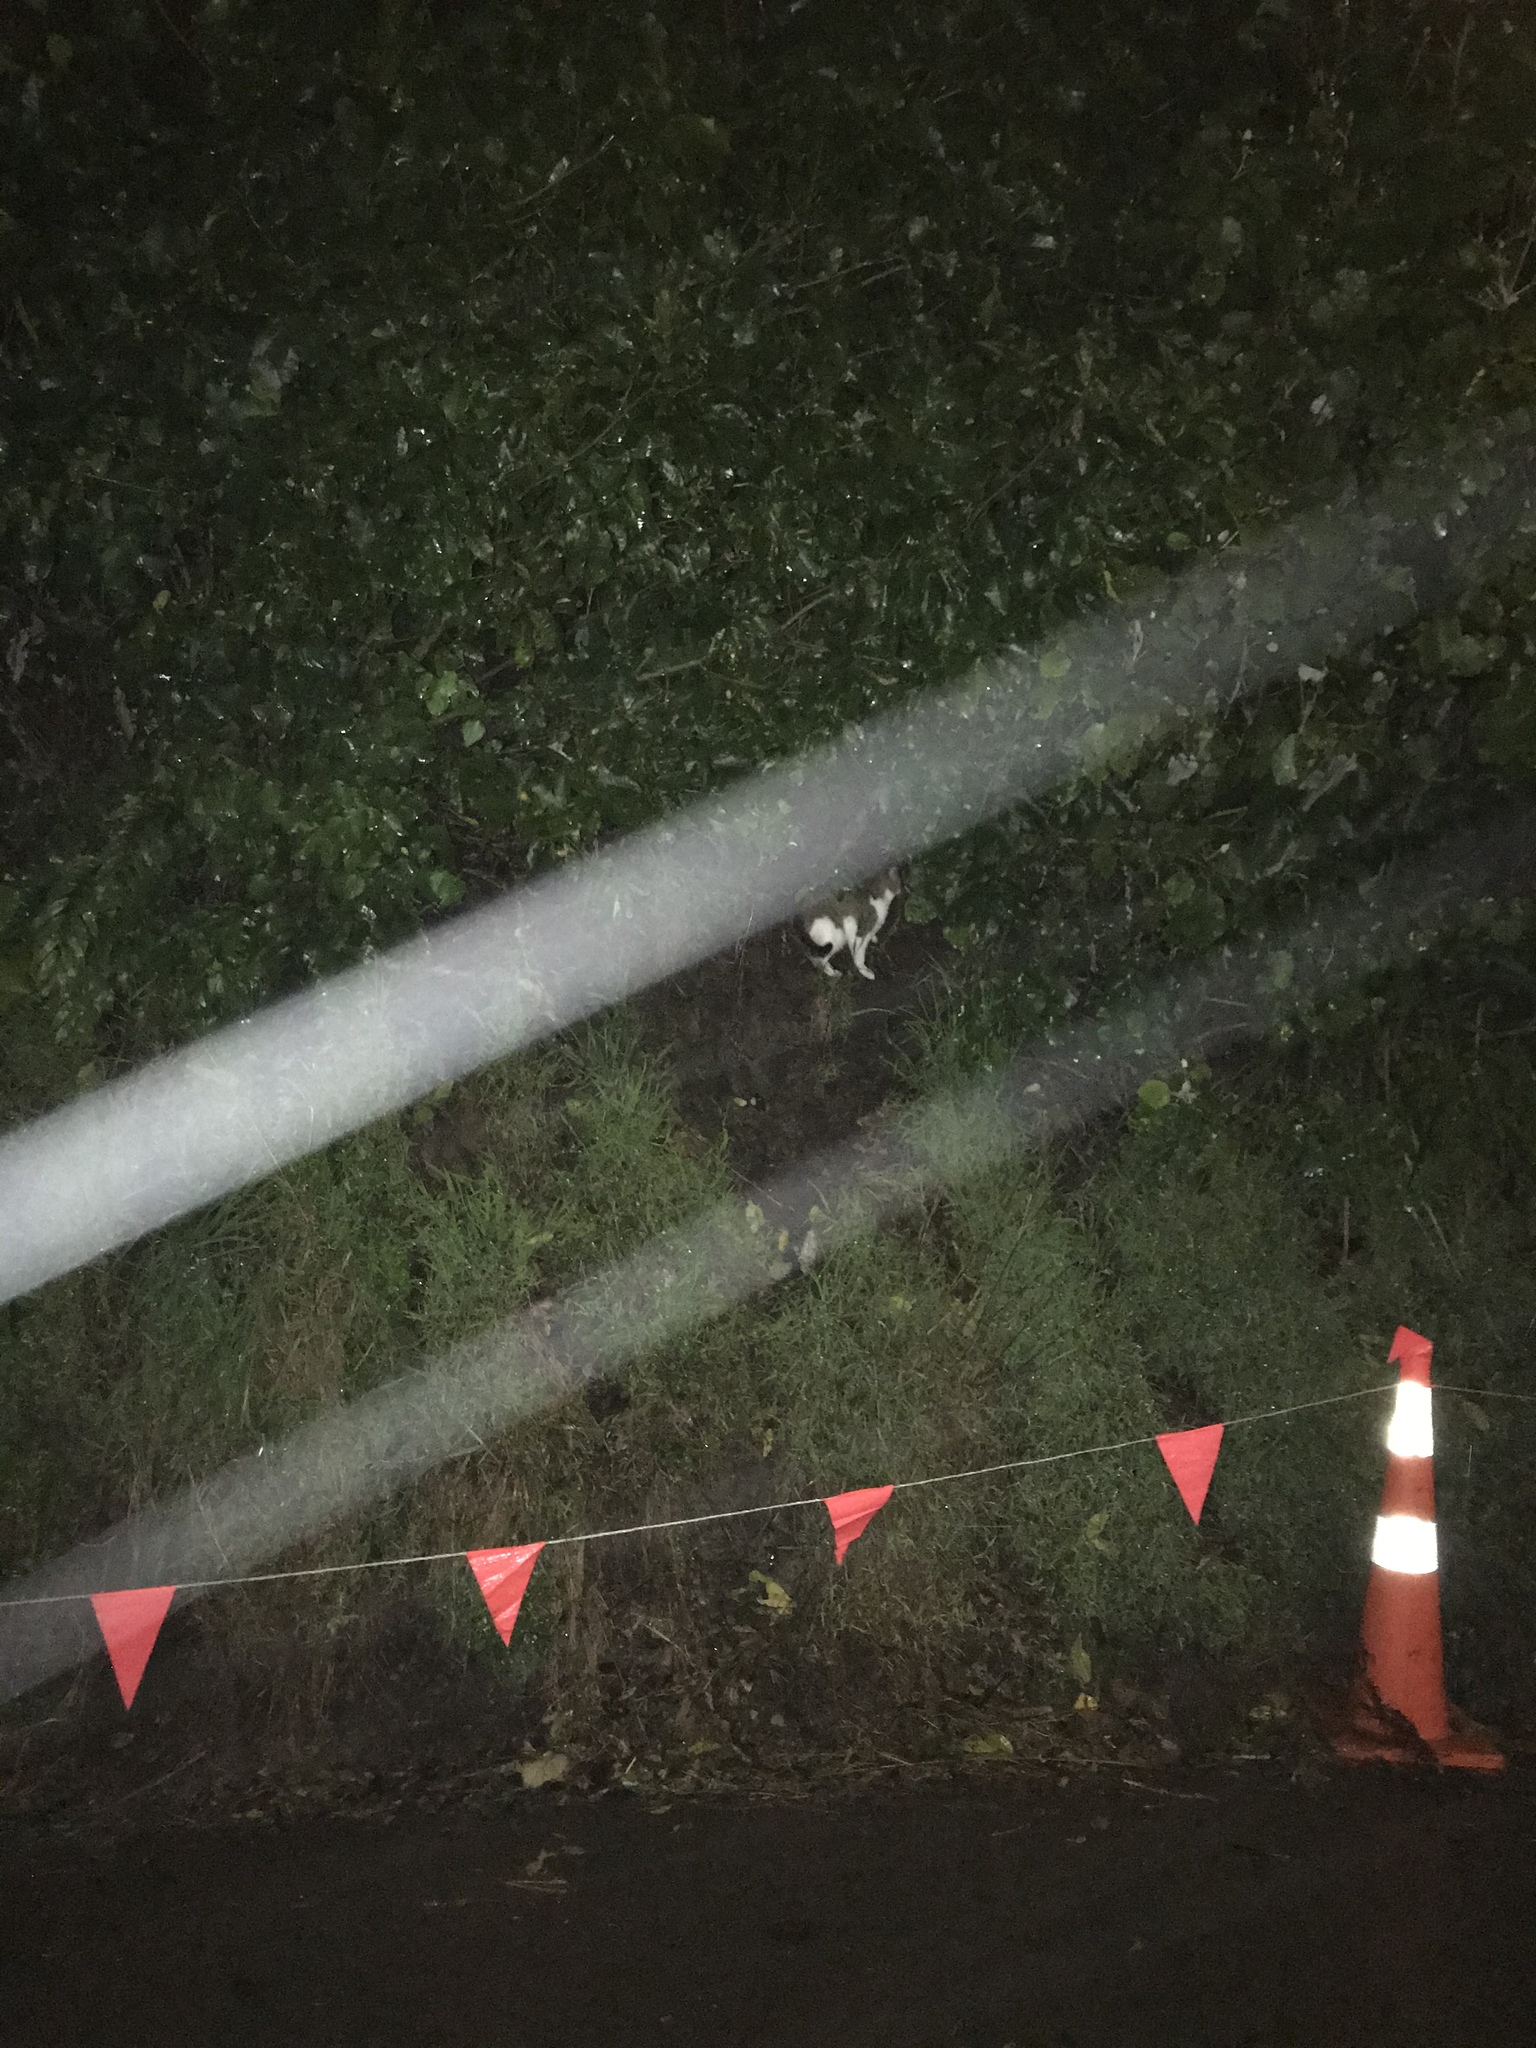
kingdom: Animalia
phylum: Chordata
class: Mammalia
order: Carnivora
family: Felidae
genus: Felis
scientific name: Felis catus
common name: Domestic cat
